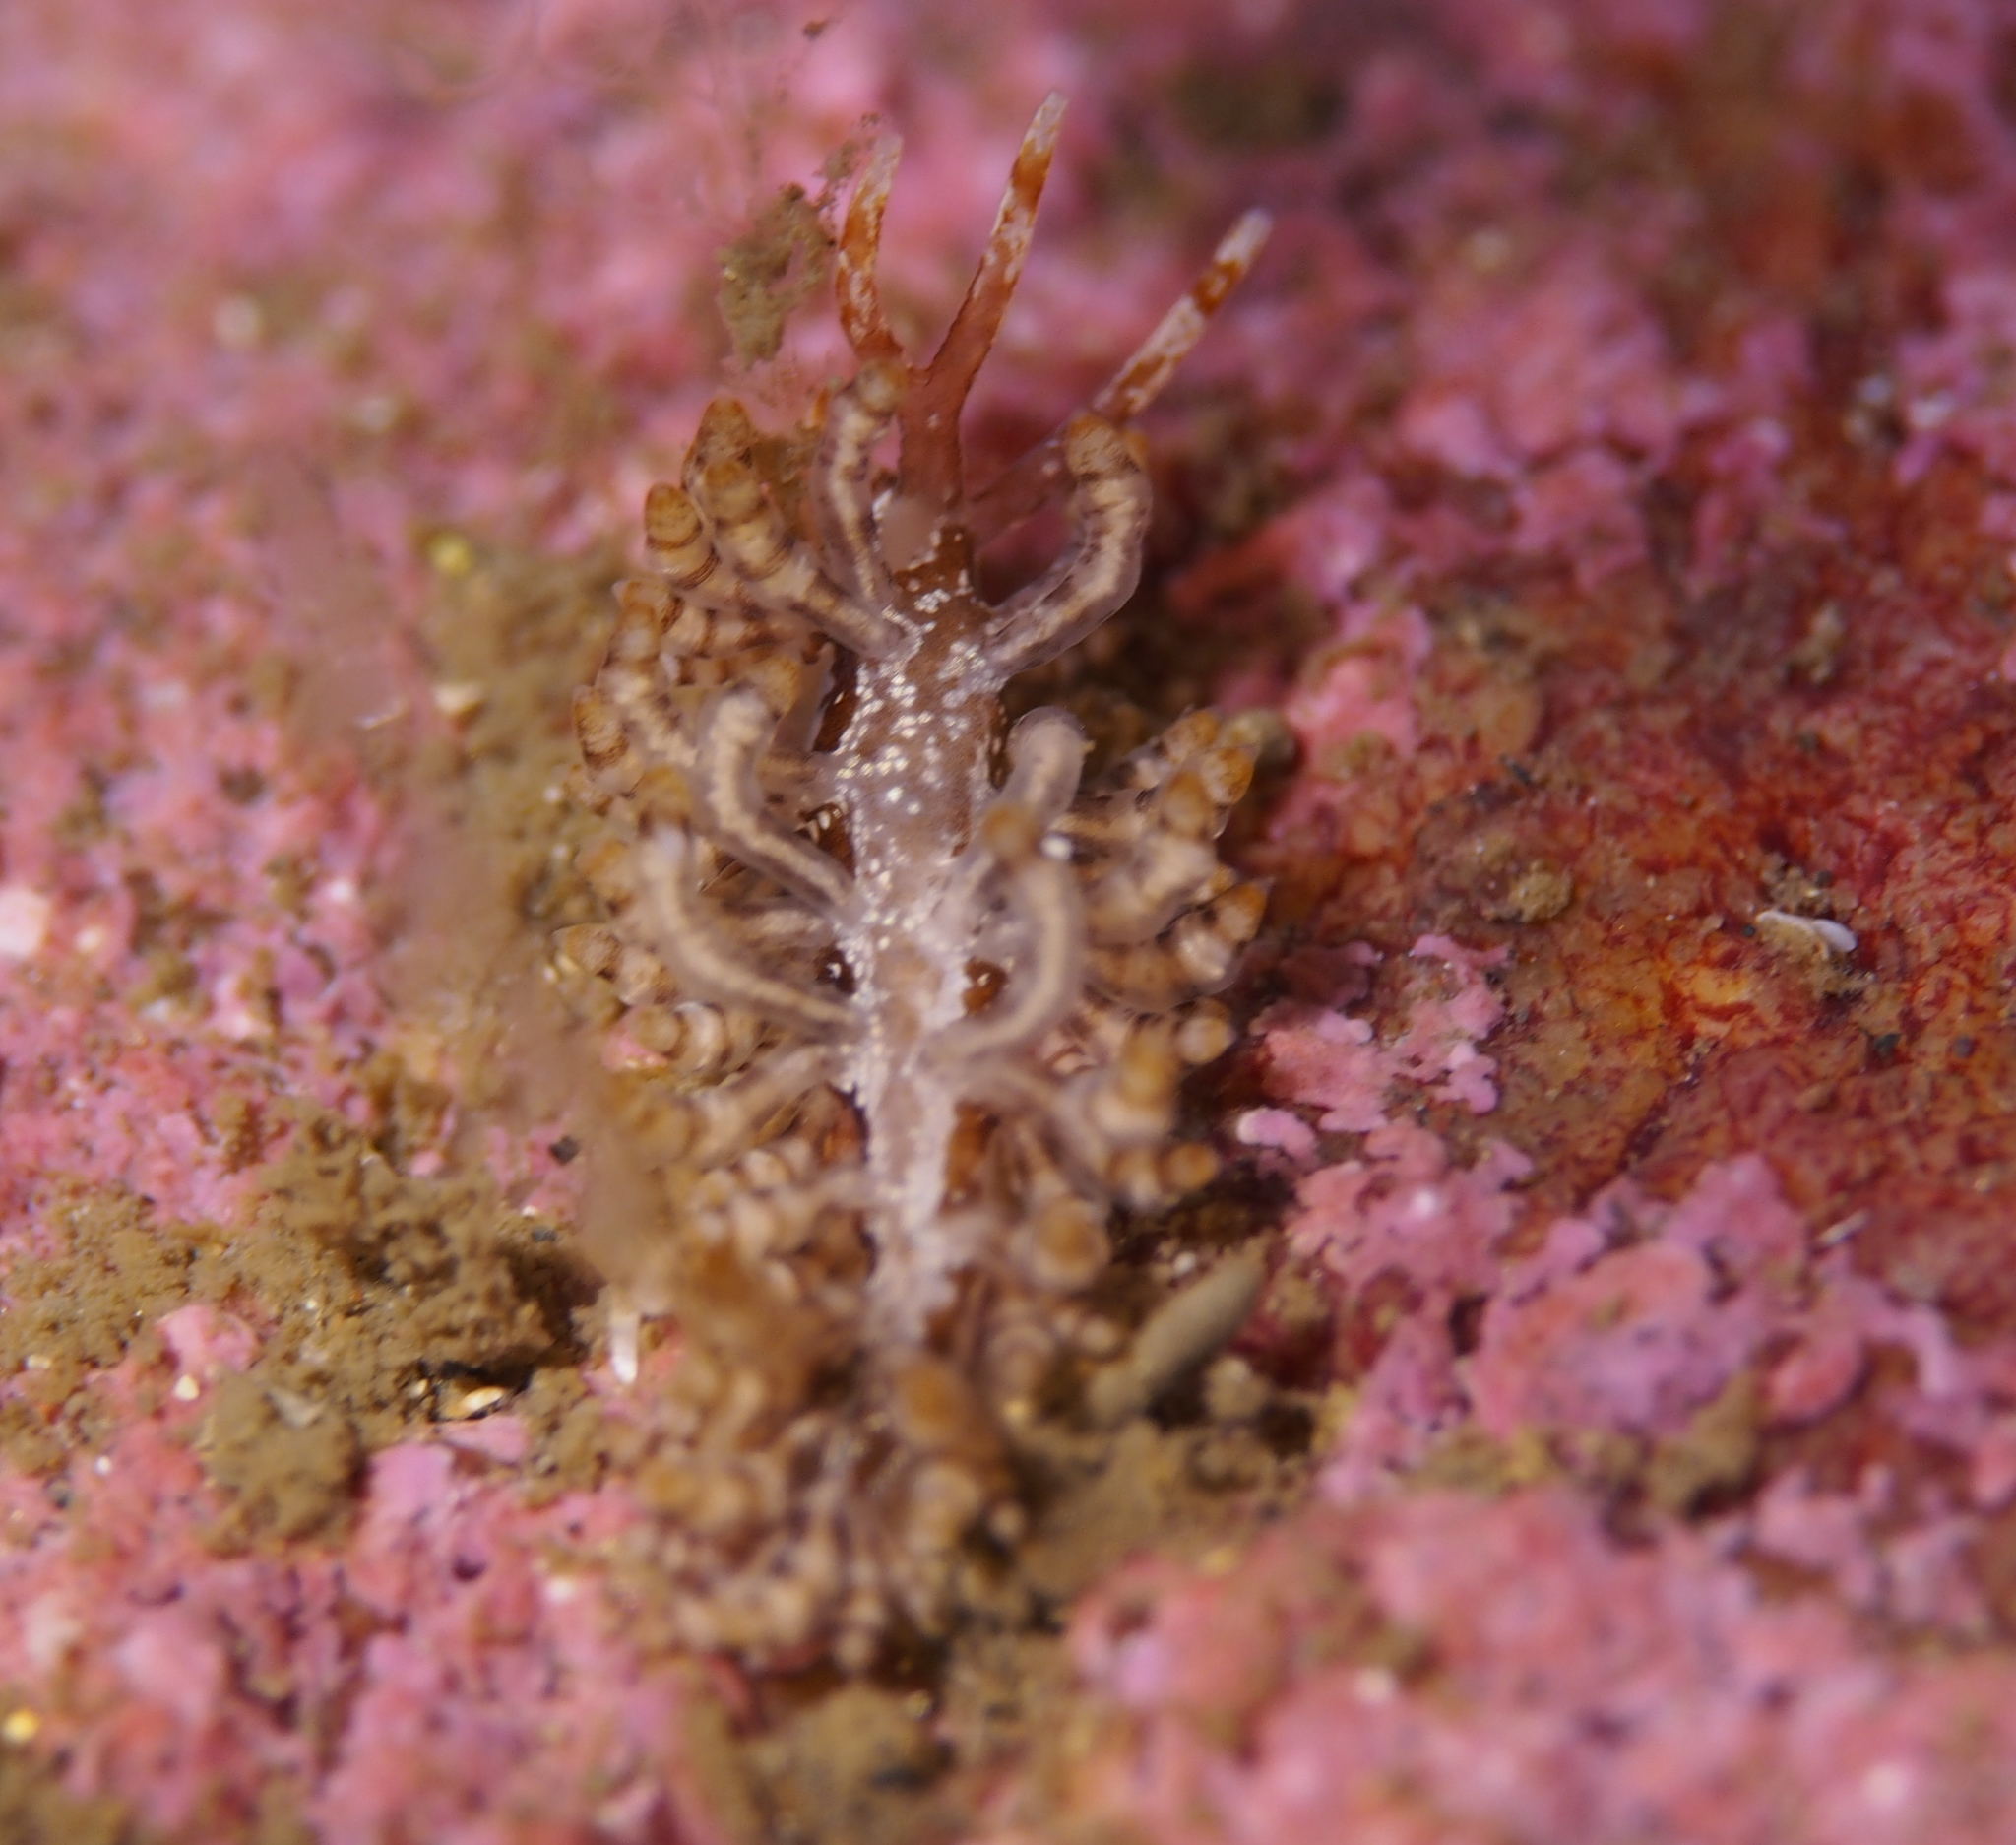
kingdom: Animalia
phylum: Mollusca
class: Gastropoda
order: Nudibranchia
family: Eubranchidae
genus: Eubranchus
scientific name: Eubranchus vittatus
